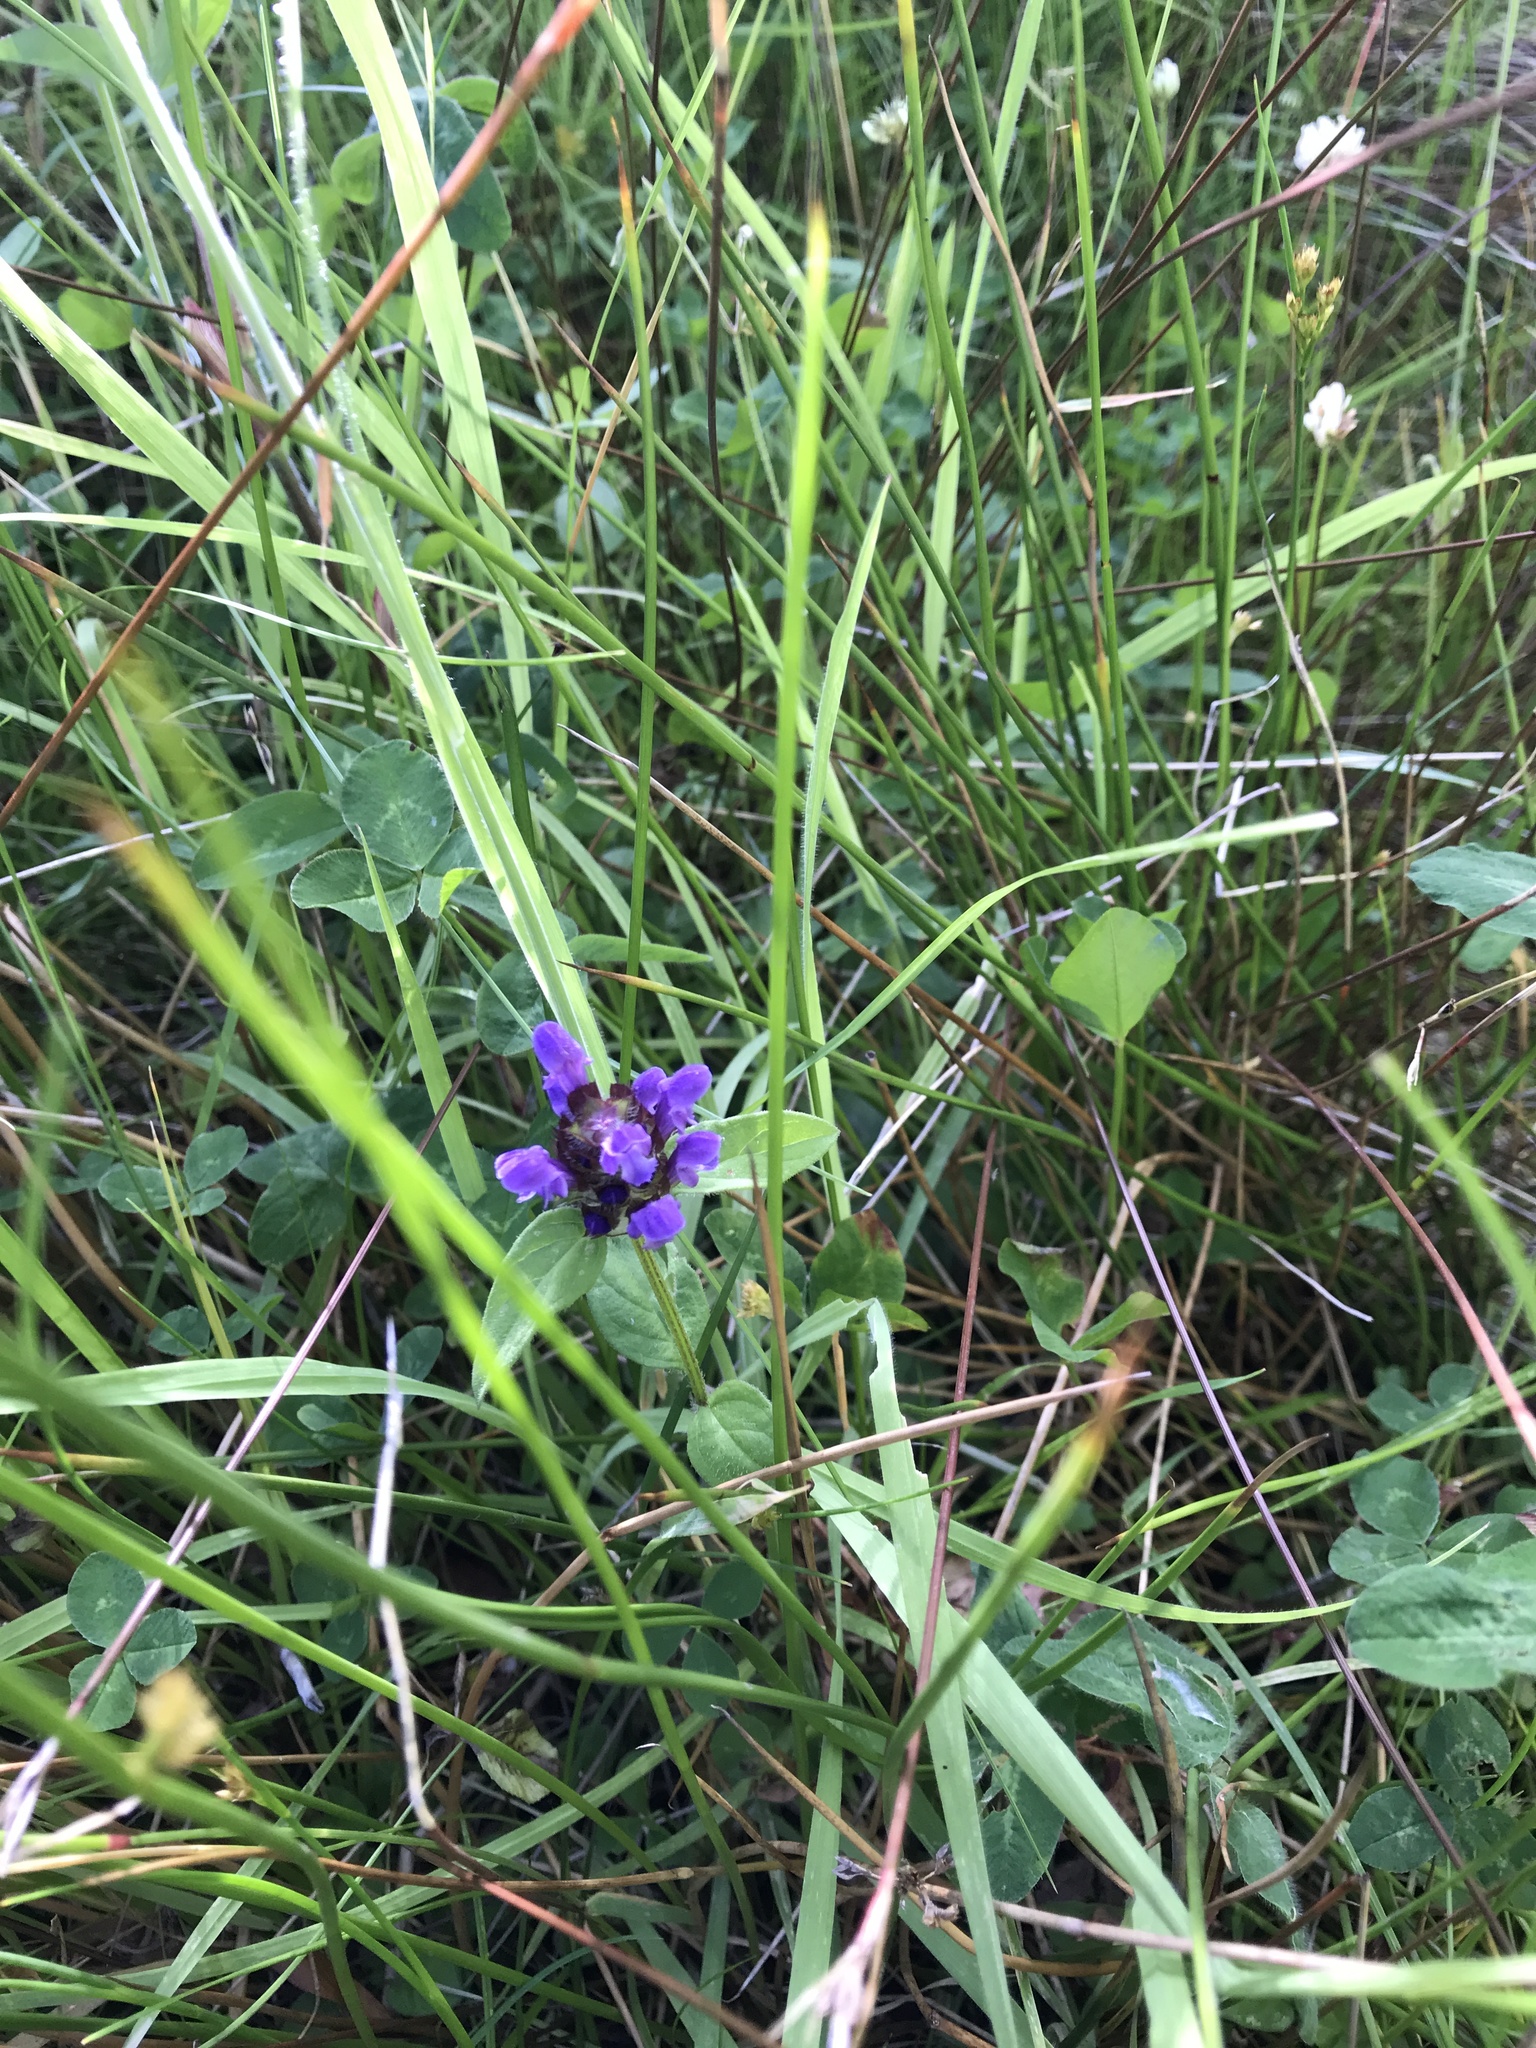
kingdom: Plantae
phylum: Tracheophyta
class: Magnoliopsida
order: Lamiales
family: Lamiaceae
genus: Prunella
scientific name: Prunella vulgaris
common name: Heal-all
